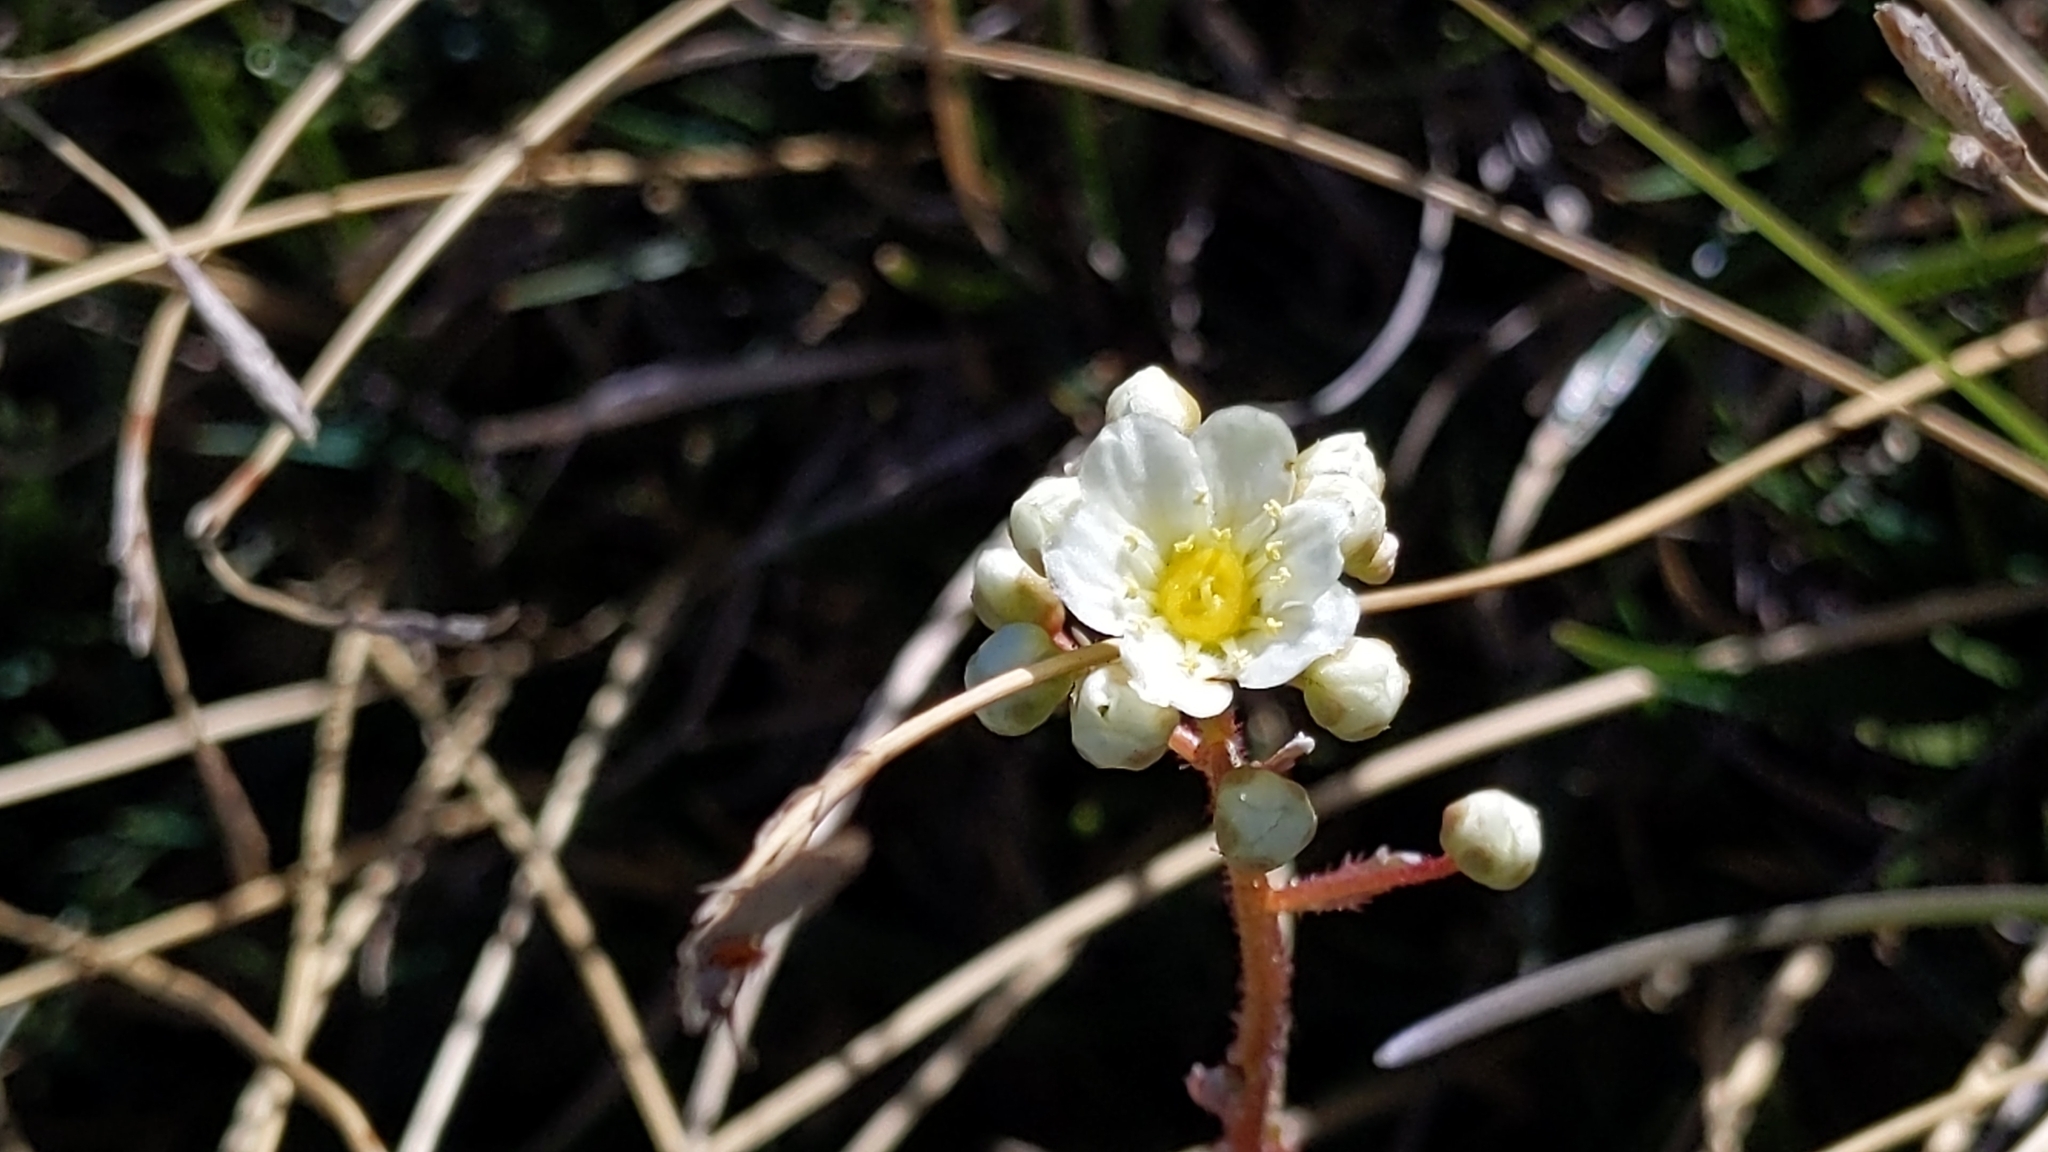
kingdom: Plantae
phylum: Tracheophyta
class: Magnoliopsida
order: Saxifragales
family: Saxifragaceae
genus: Saxifraga
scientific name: Saxifraga paniculata
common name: Livelong saxifrage
